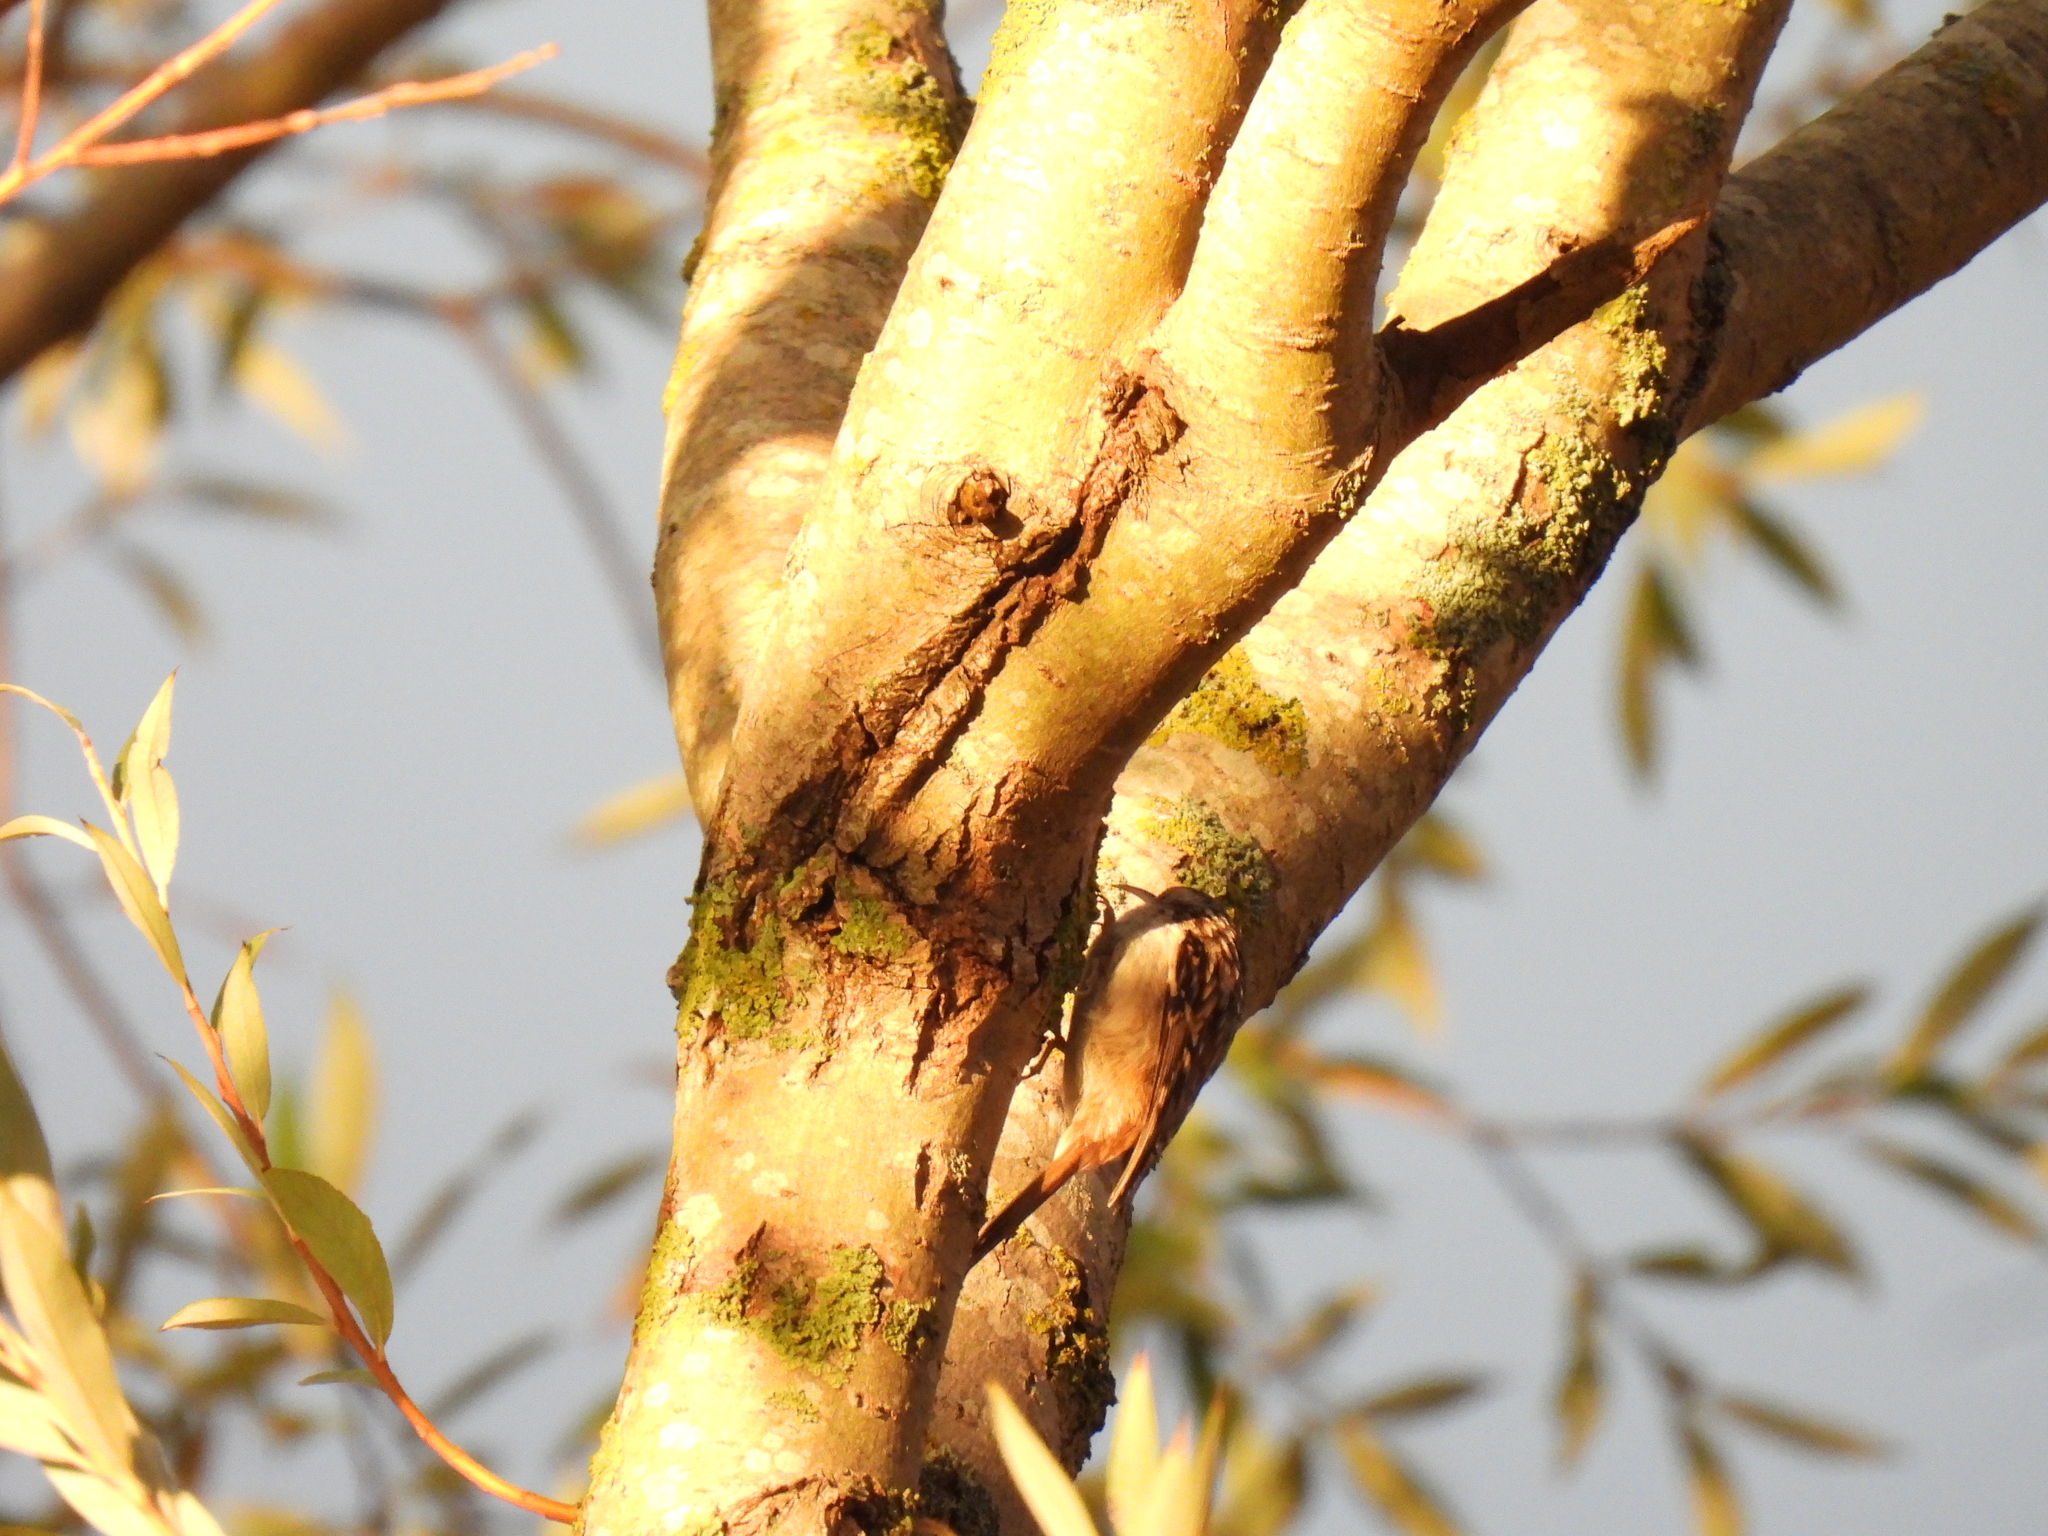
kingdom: Animalia
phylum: Chordata
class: Aves
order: Passeriformes
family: Certhiidae
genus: Certhia
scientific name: Certhia brachydactyla
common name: Short-toed treecreeper
